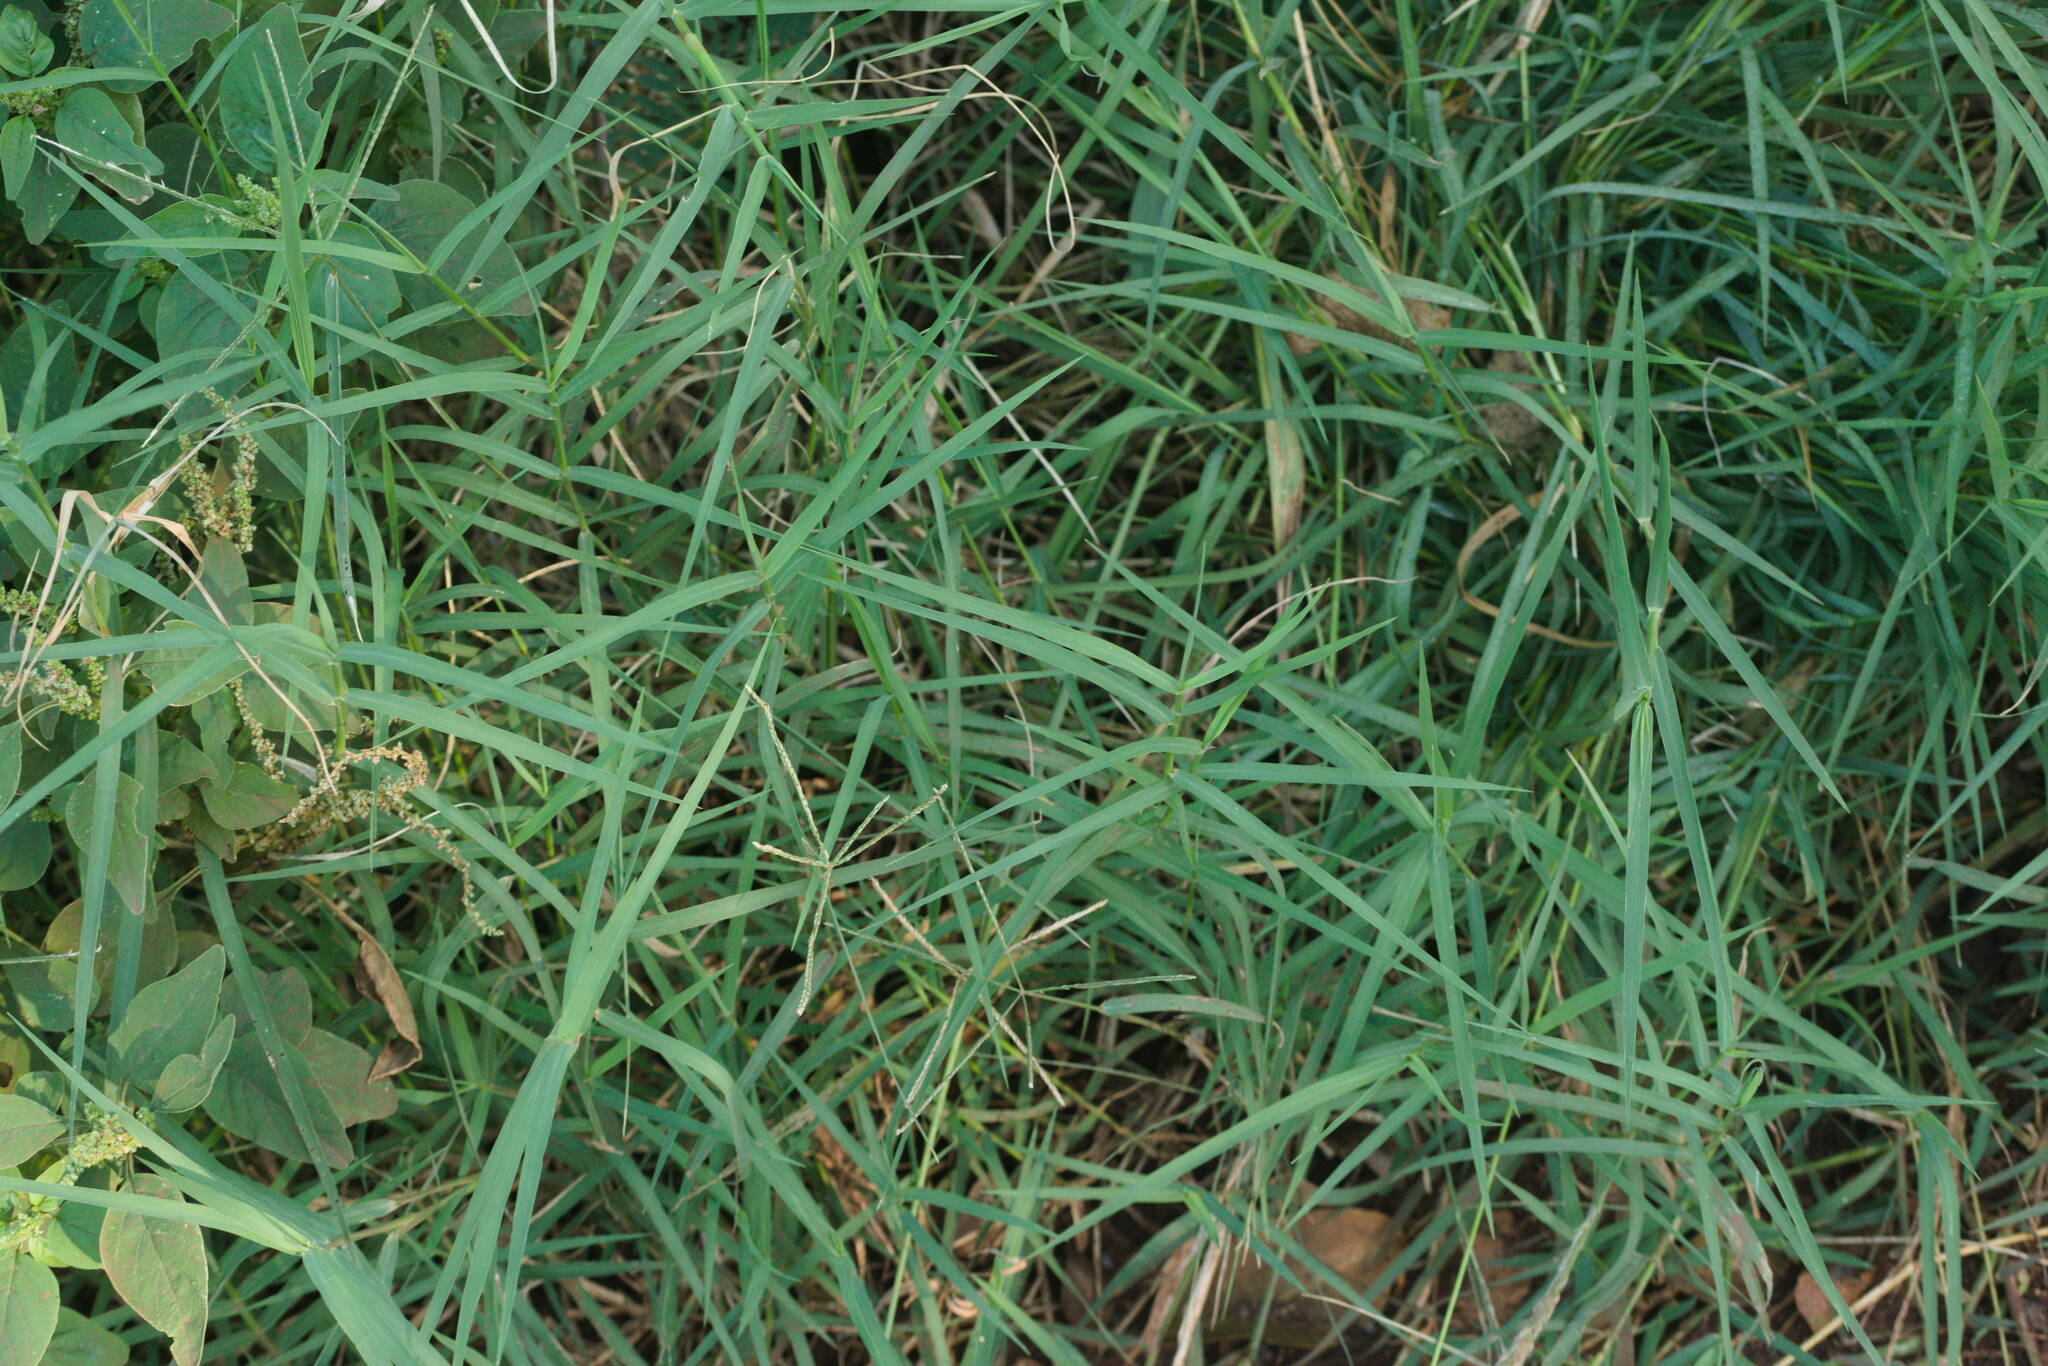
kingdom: Plantae
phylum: Tracheophyta
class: Liliopsida
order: Poales
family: Poaceae
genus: Cynodon
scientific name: Cynodon dactylon
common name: Bermuda grass
